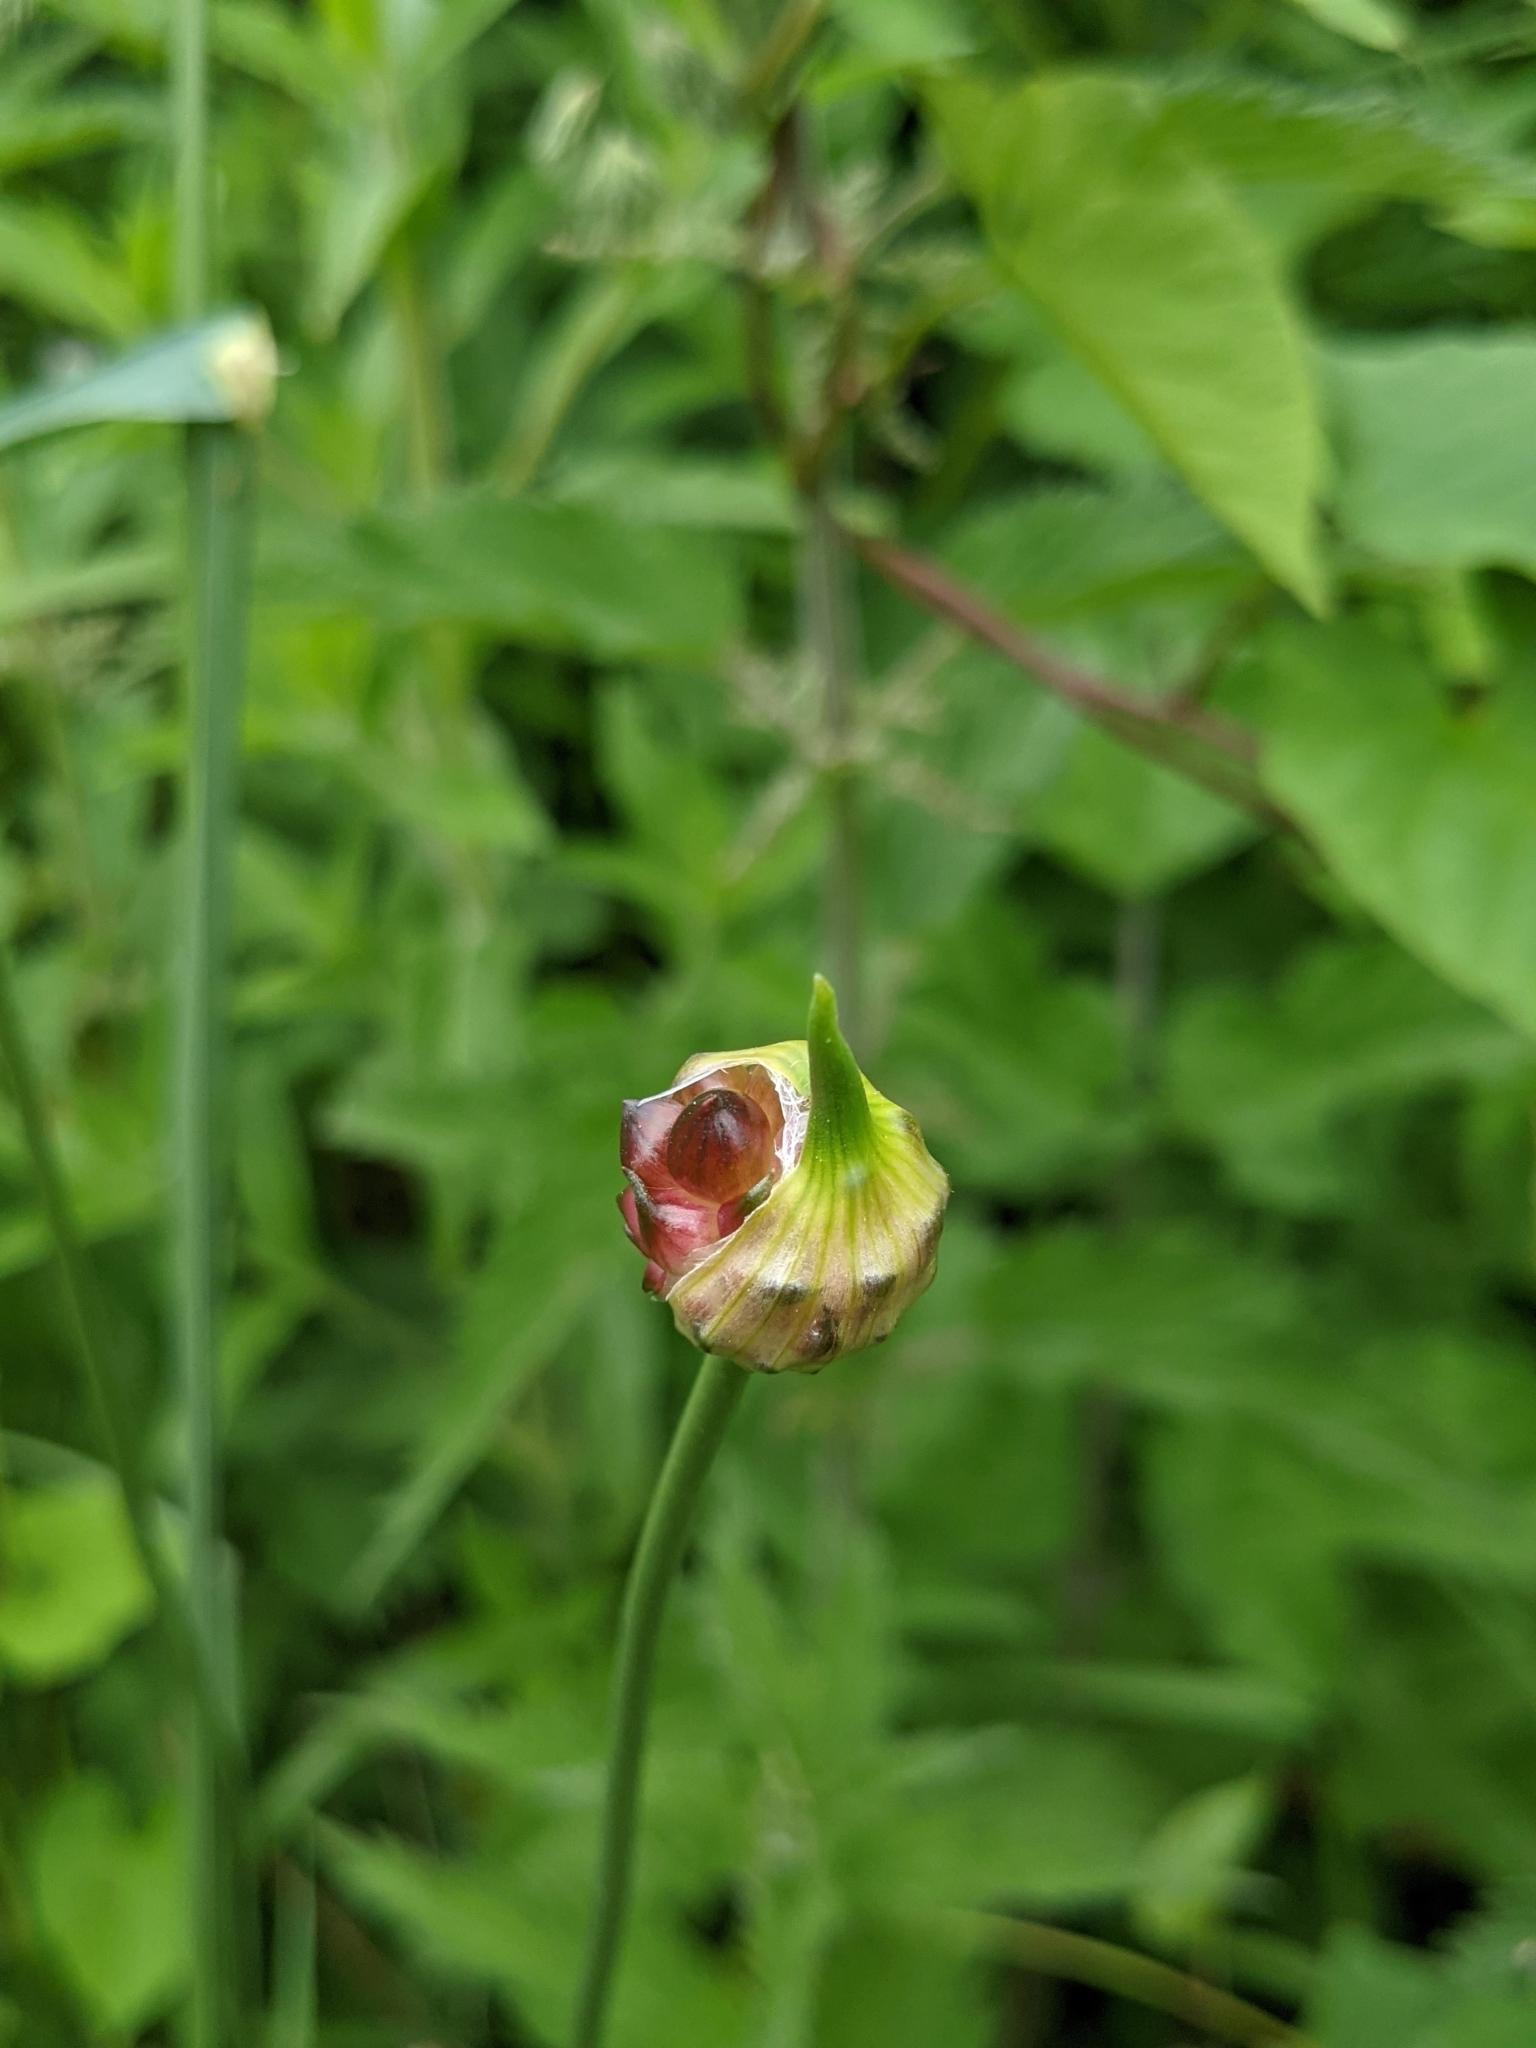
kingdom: Plantae
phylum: Tracheophyta
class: Liliopsida
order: Asparagales
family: Amaryllidaceae
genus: Allium
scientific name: Allium vineale
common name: Crow garlic
